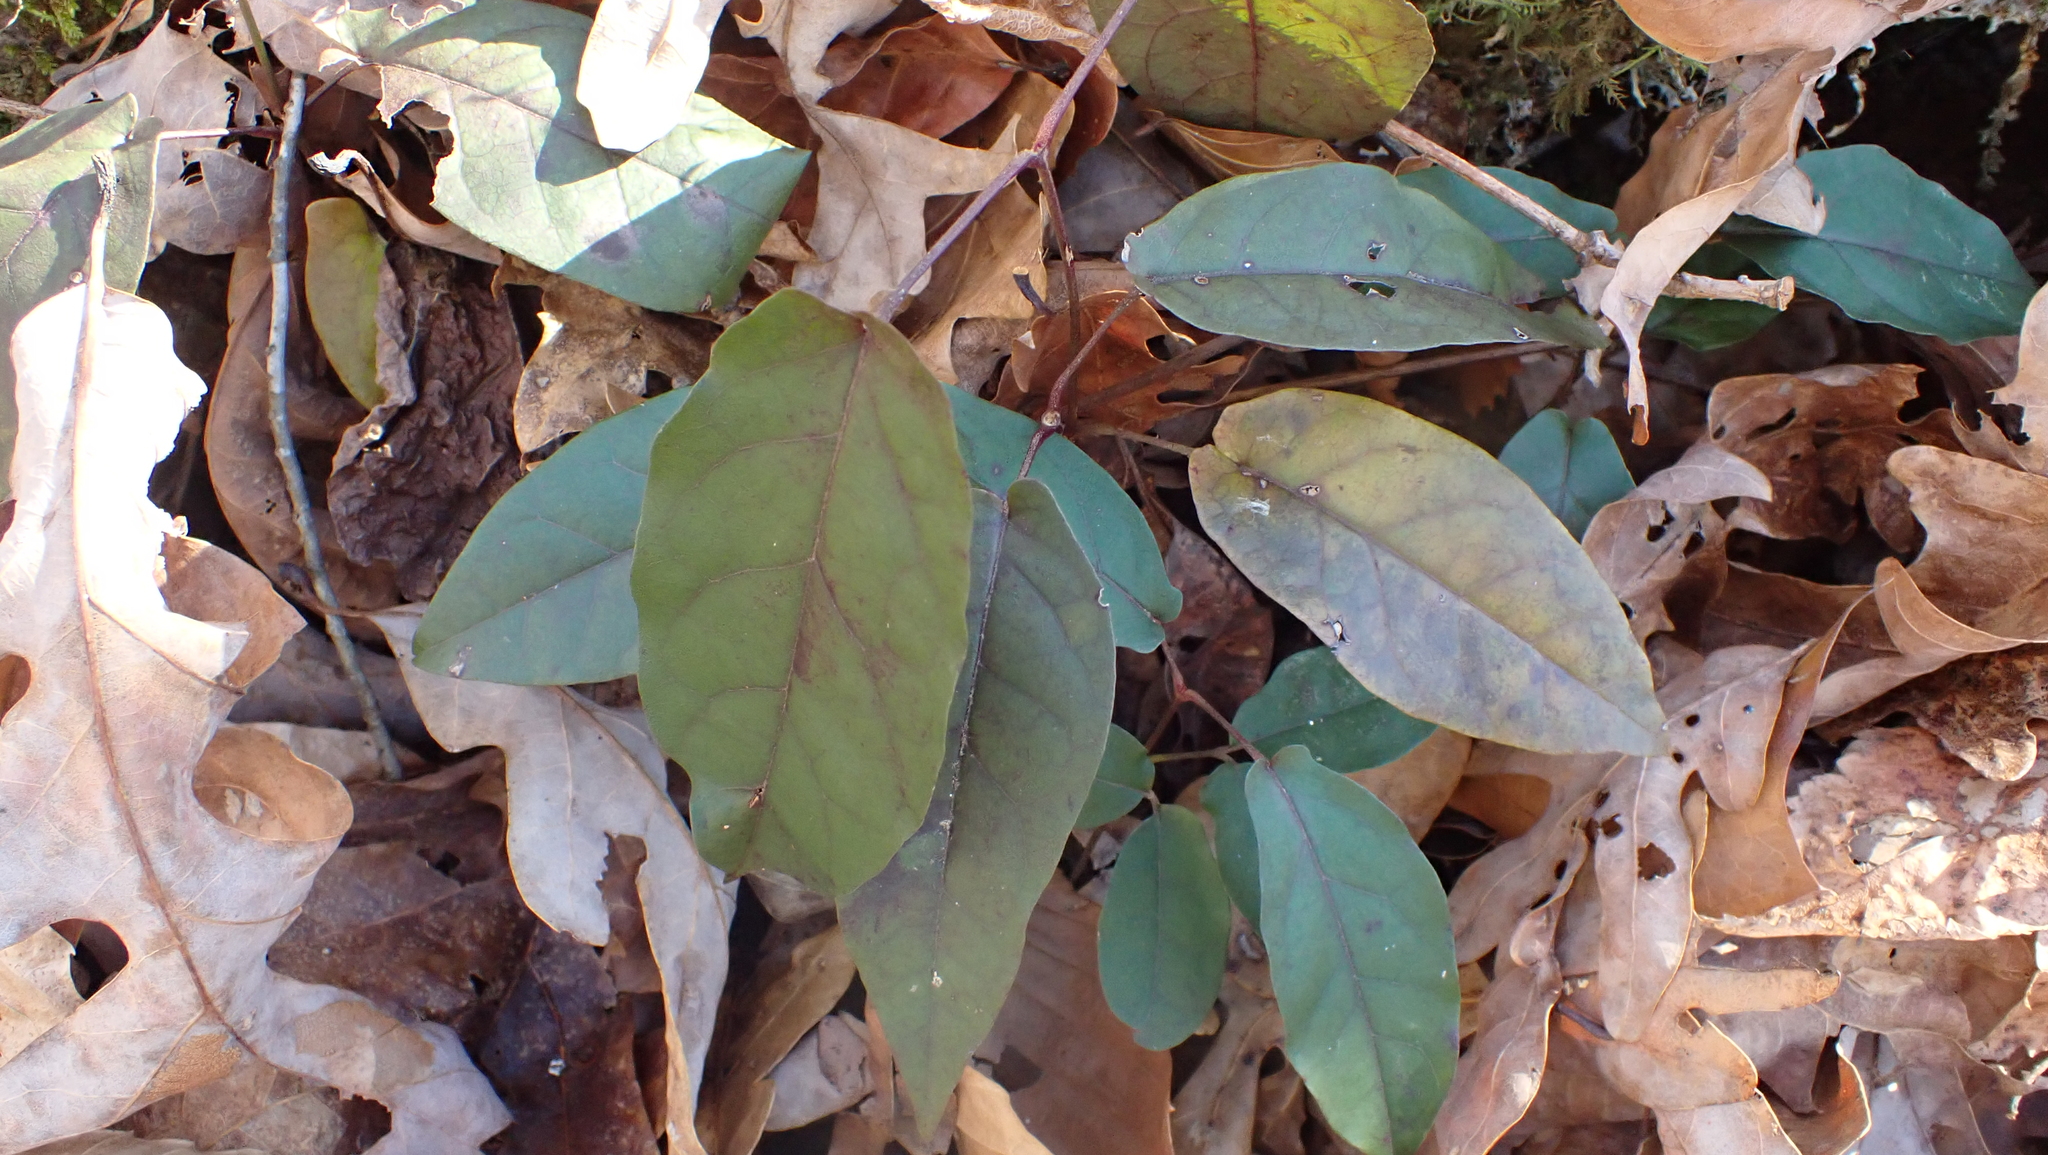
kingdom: Plantae
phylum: Tracheophyta
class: Magnoliopsida
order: Lamiales
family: Bignoniaceae
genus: Bignonia
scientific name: Bignonia capreolata
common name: Crossvine
